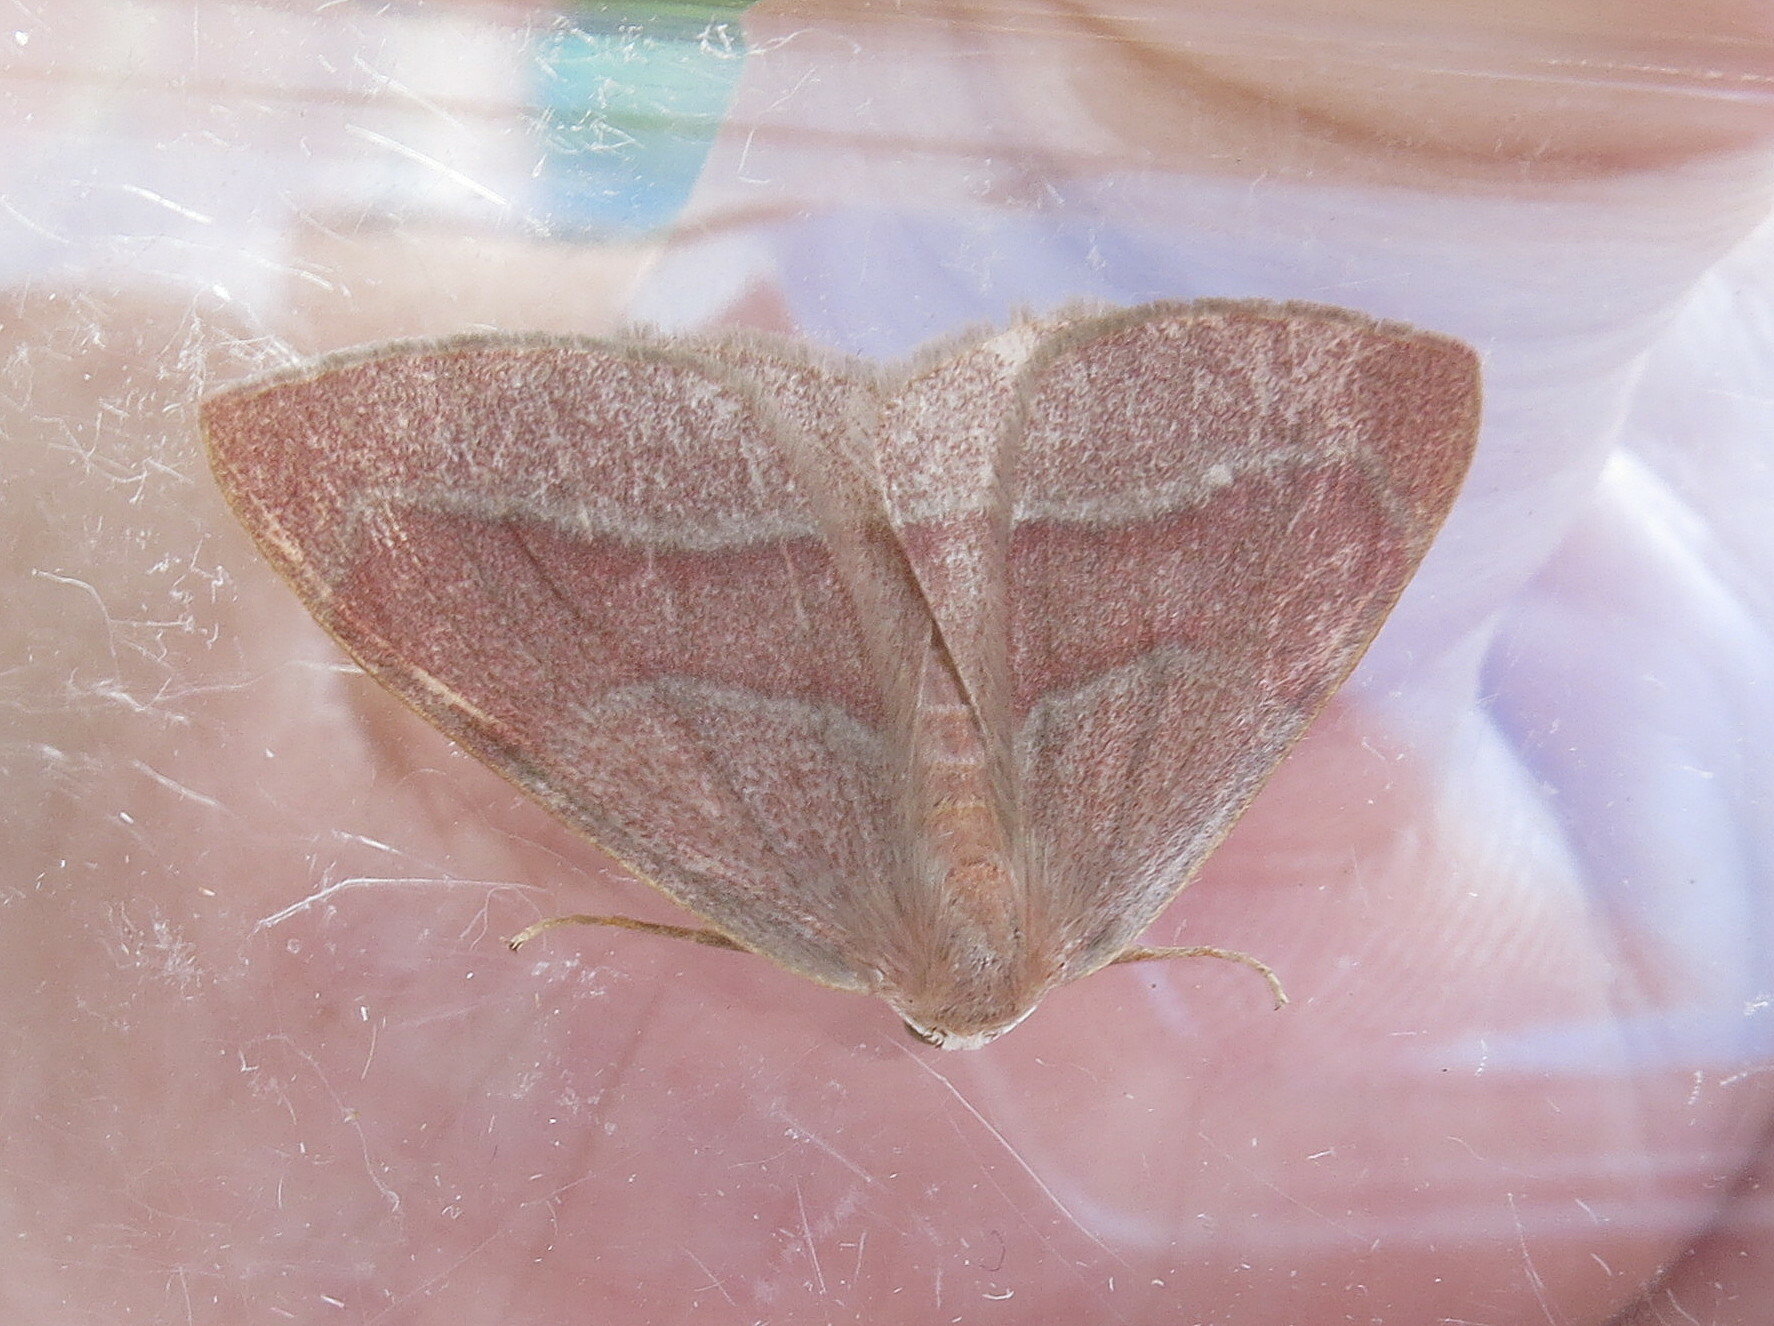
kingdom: Animalia
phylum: Arthropoda
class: Insecta
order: Lepidoptera
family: Geometridae
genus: Hylaea
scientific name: Hylaea fasciaria
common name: Barred red
